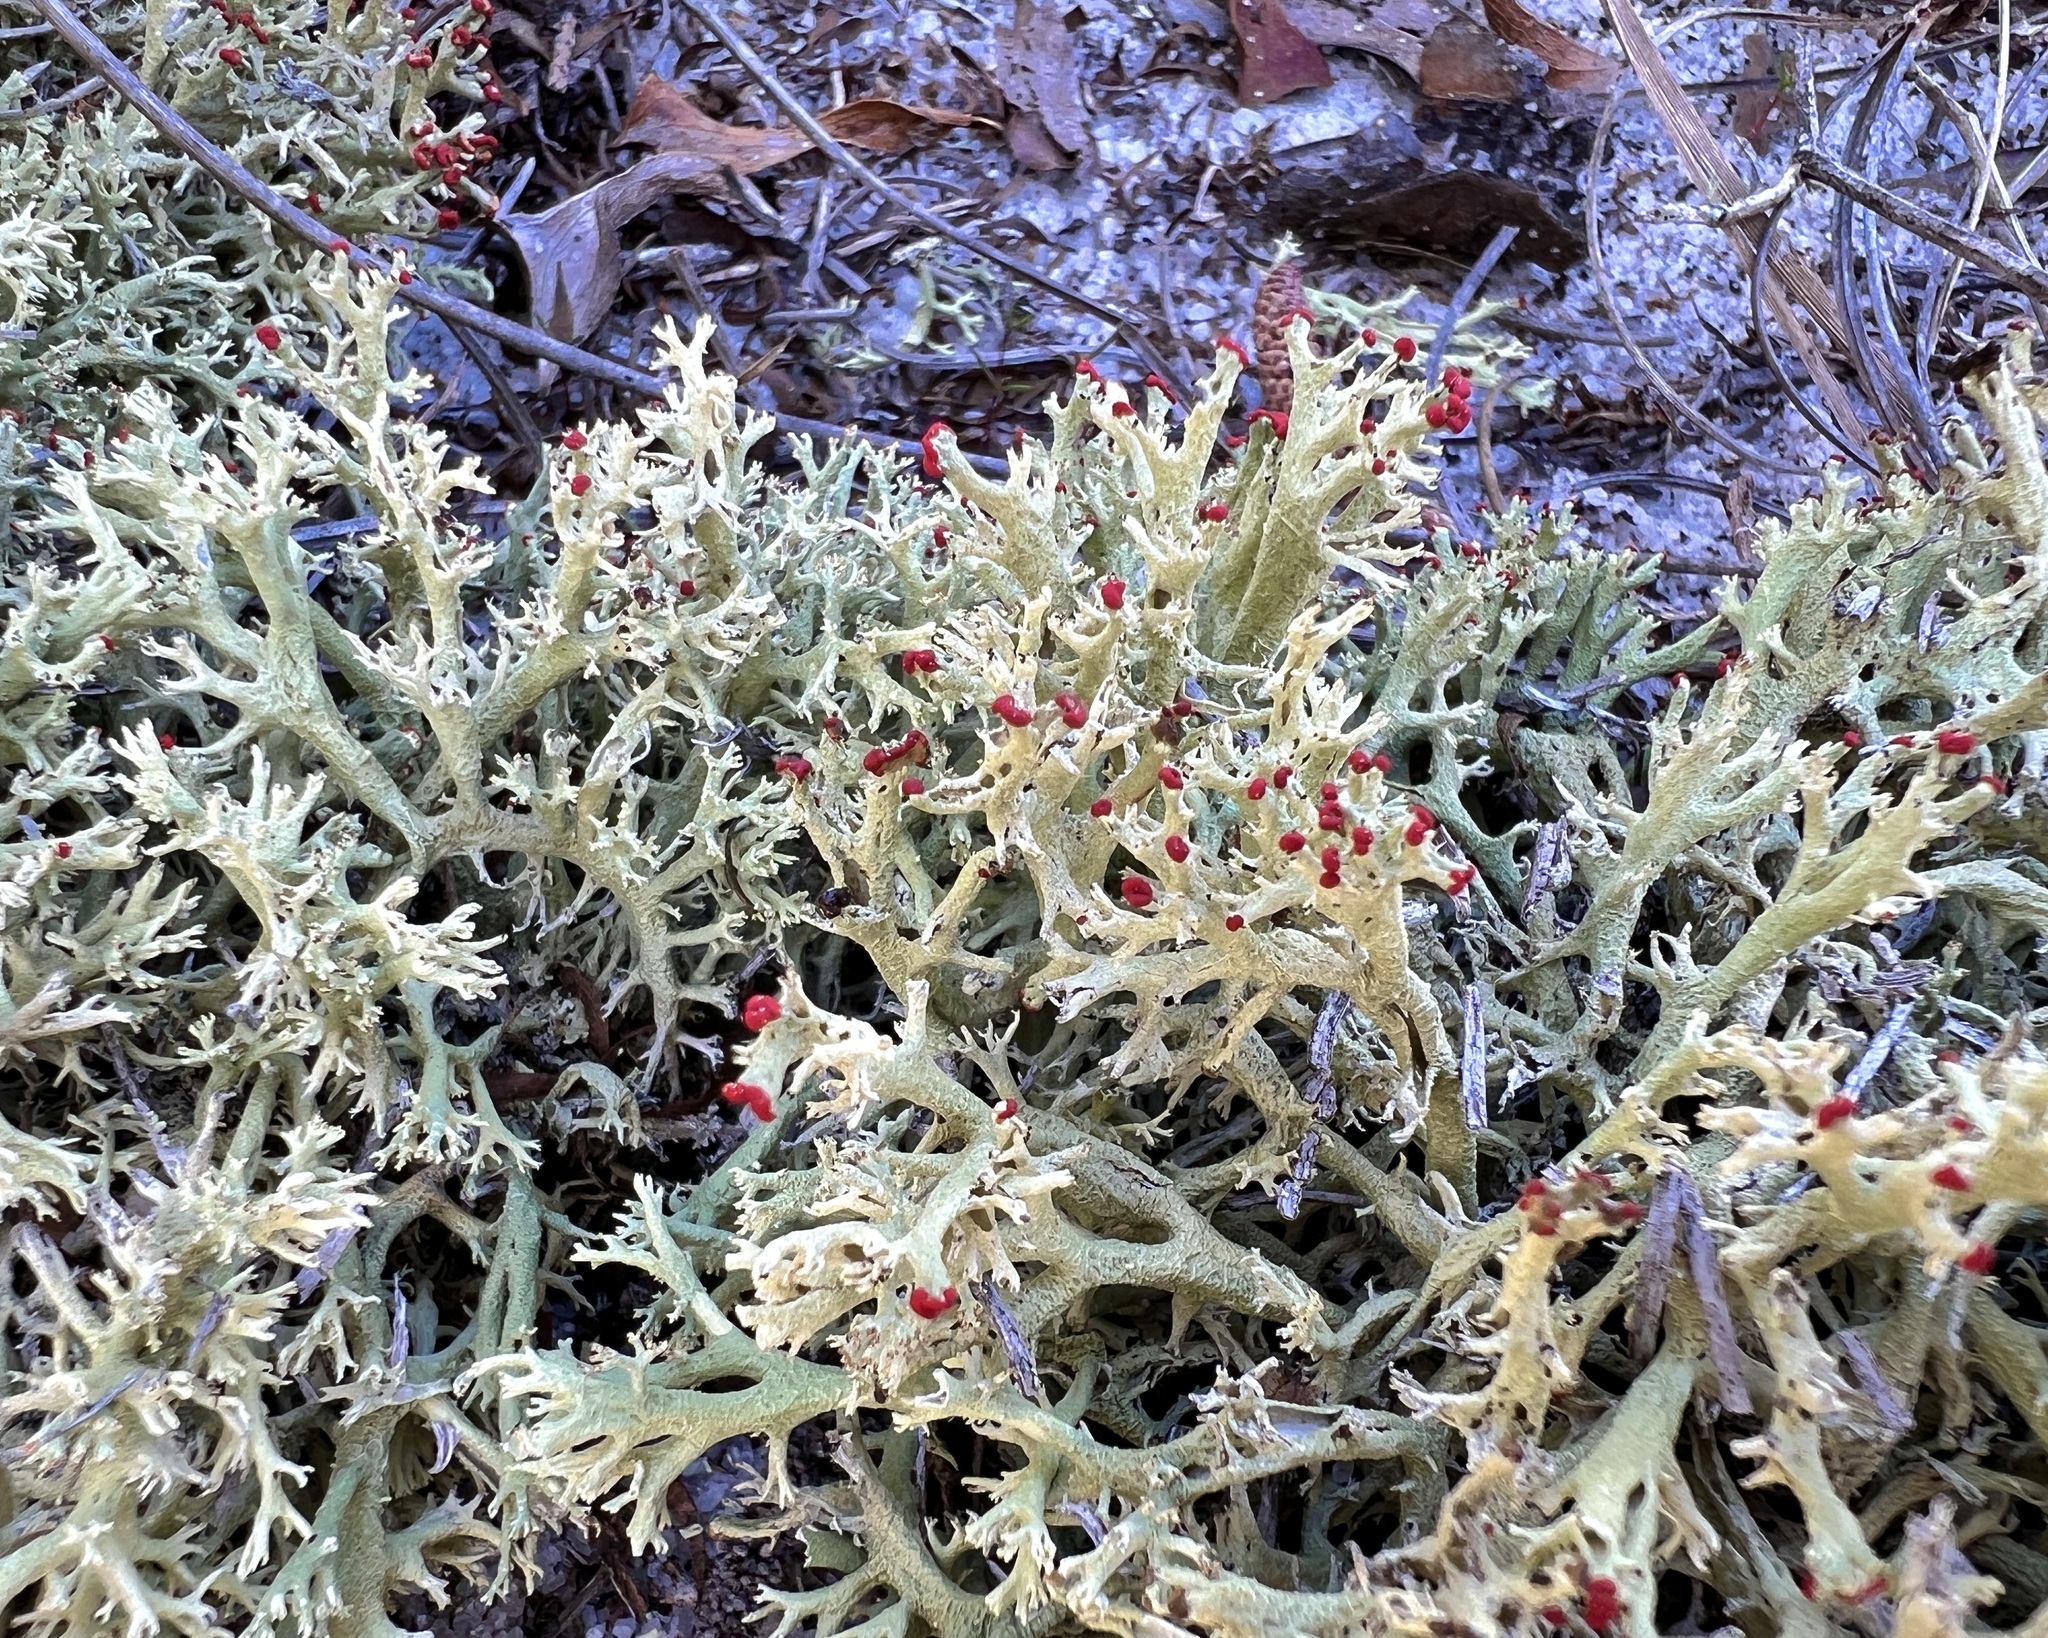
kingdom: Fungi
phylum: Ascomycota
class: Lecanoromycetes
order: Lecanorales
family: Cladoniaceae
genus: Cladonia
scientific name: Cladonia leporina
